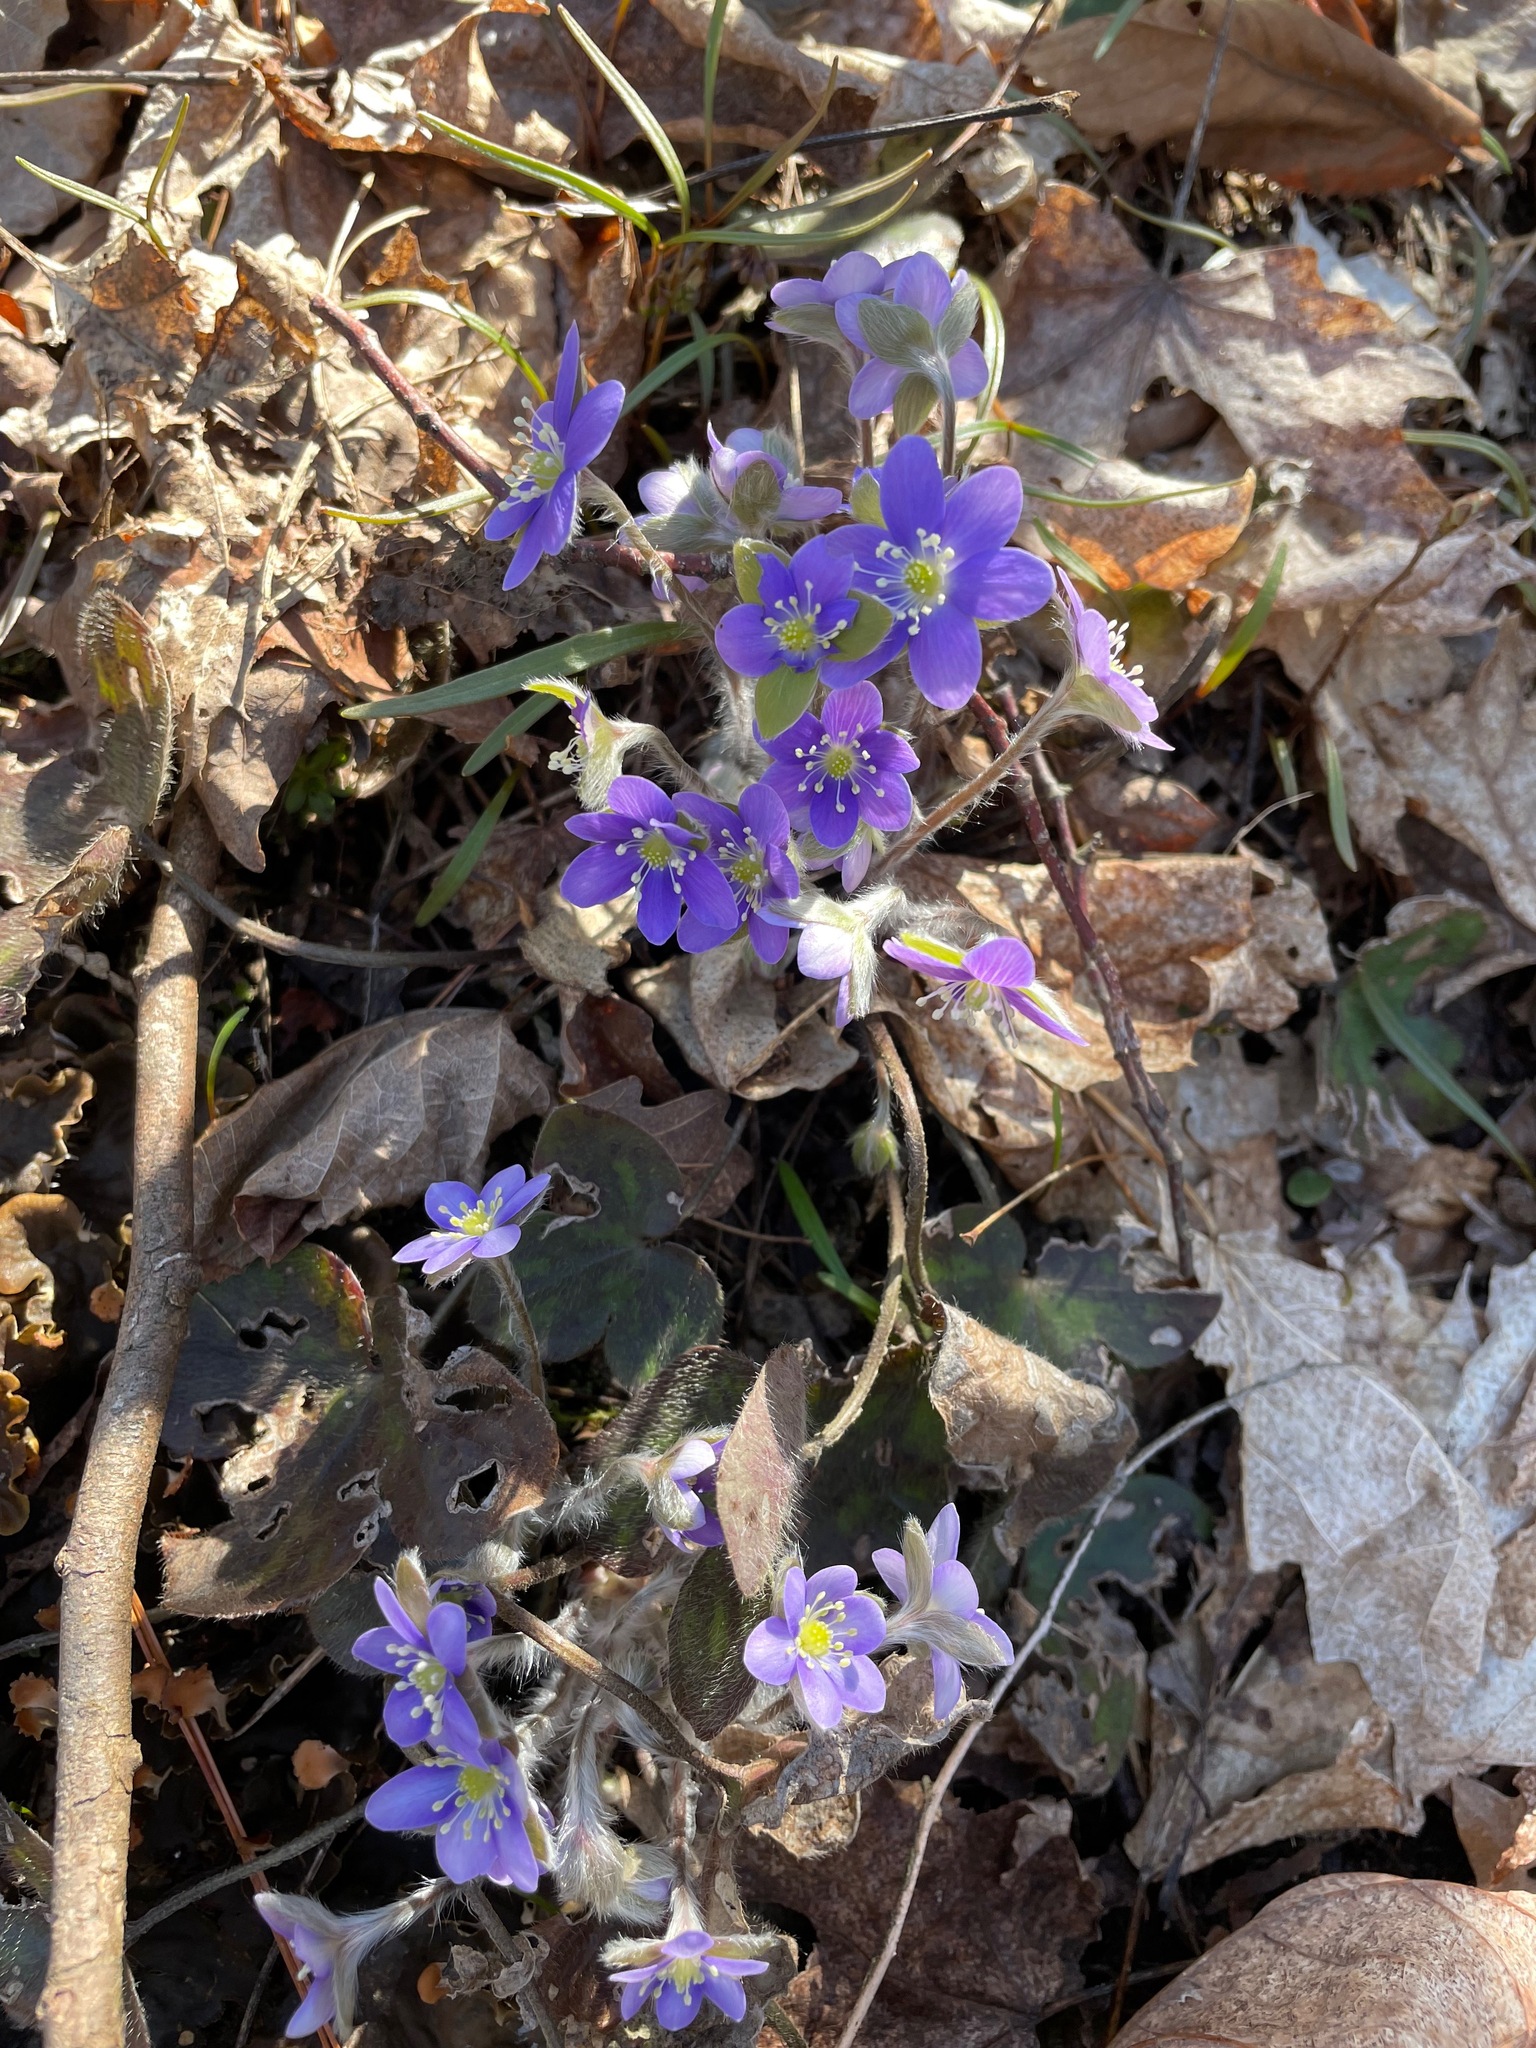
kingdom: Plantae
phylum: Tracheophyta
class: Magnoliopsida
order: Ranunculales
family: Ranunculaceae
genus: Hepatica
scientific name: Hepatica americana
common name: American hepatica
